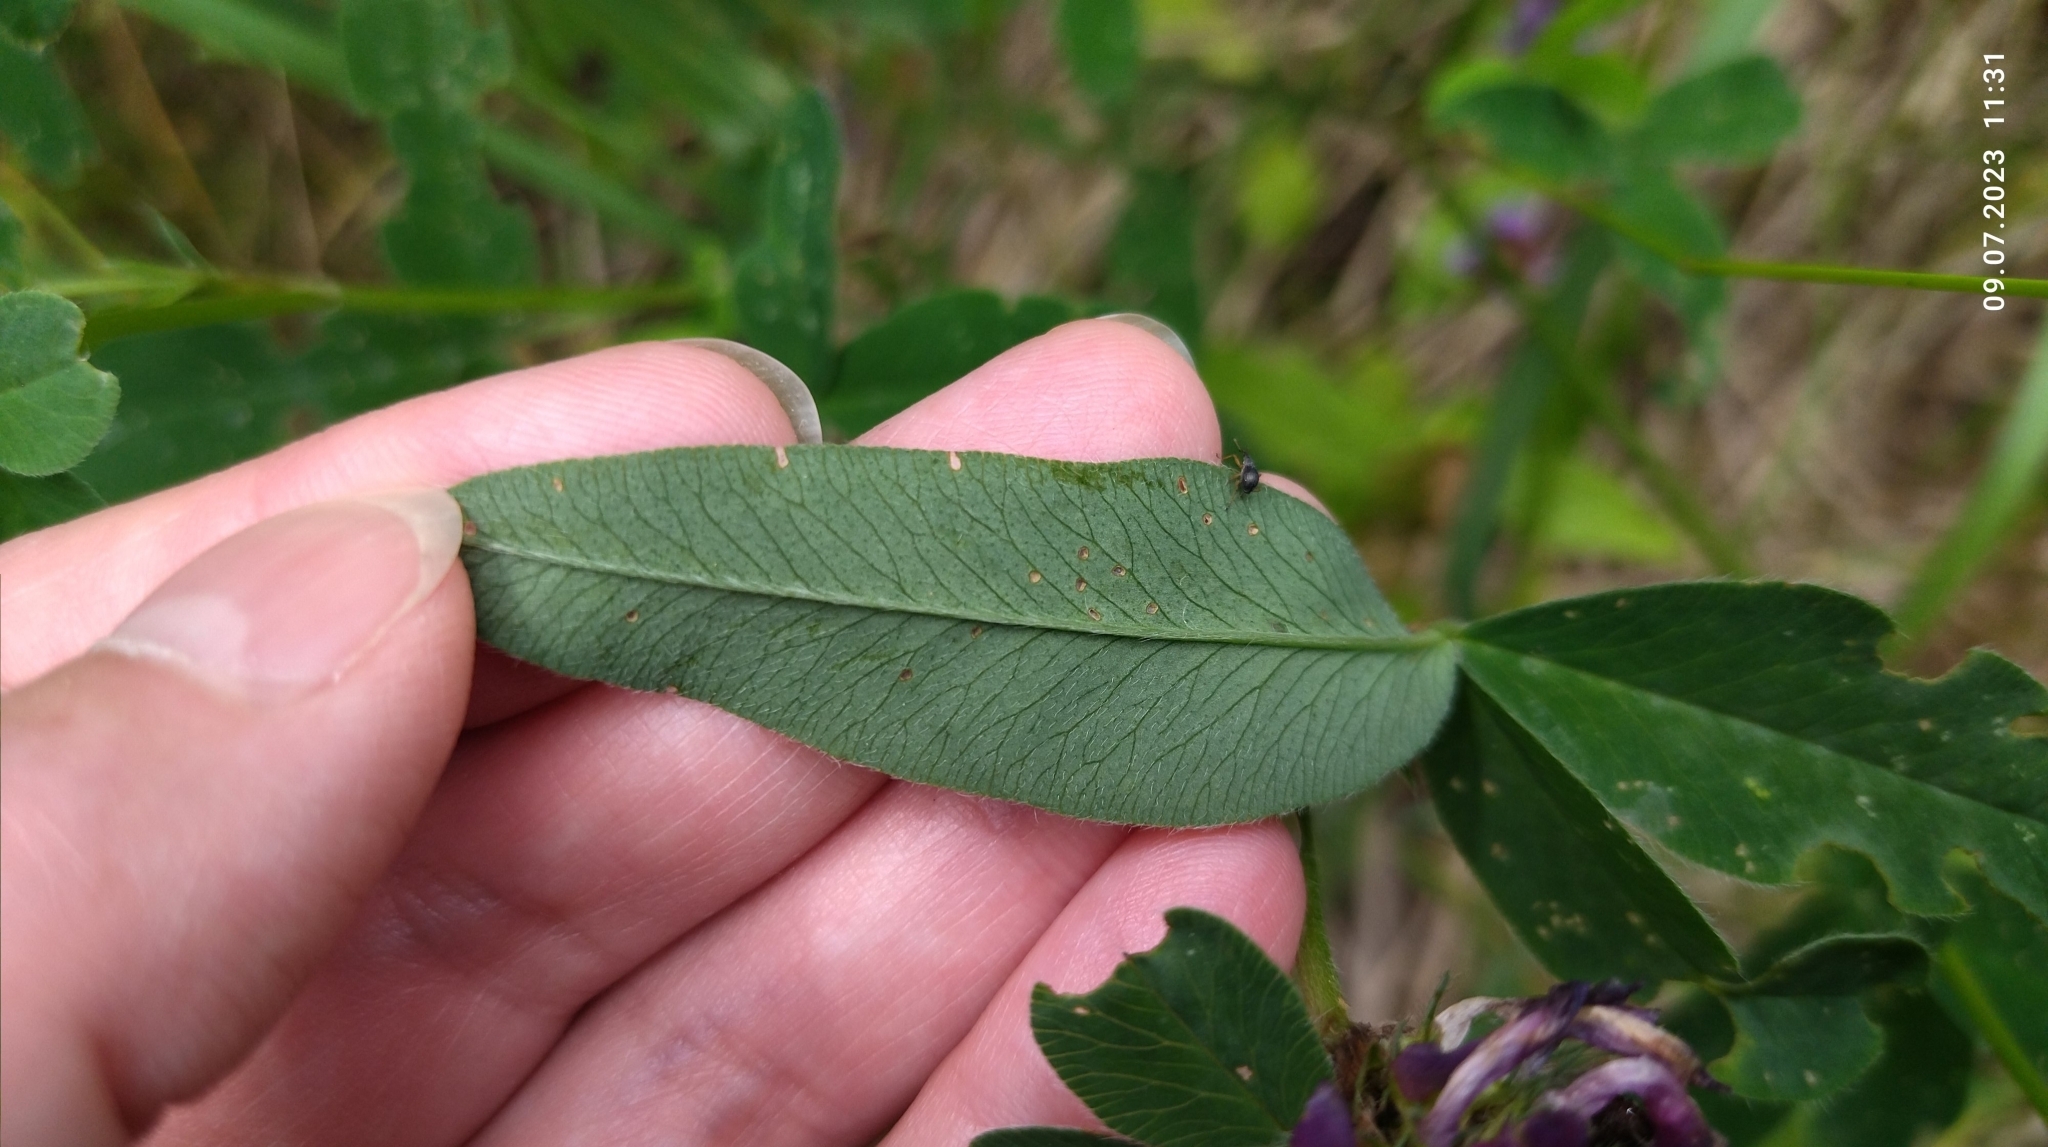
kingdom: Plantae
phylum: Tracheophyta
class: Magnoliopsida
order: Fabales
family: Fabaceae
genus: Trifolium
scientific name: Trifolium medium
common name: Zigzag clover
